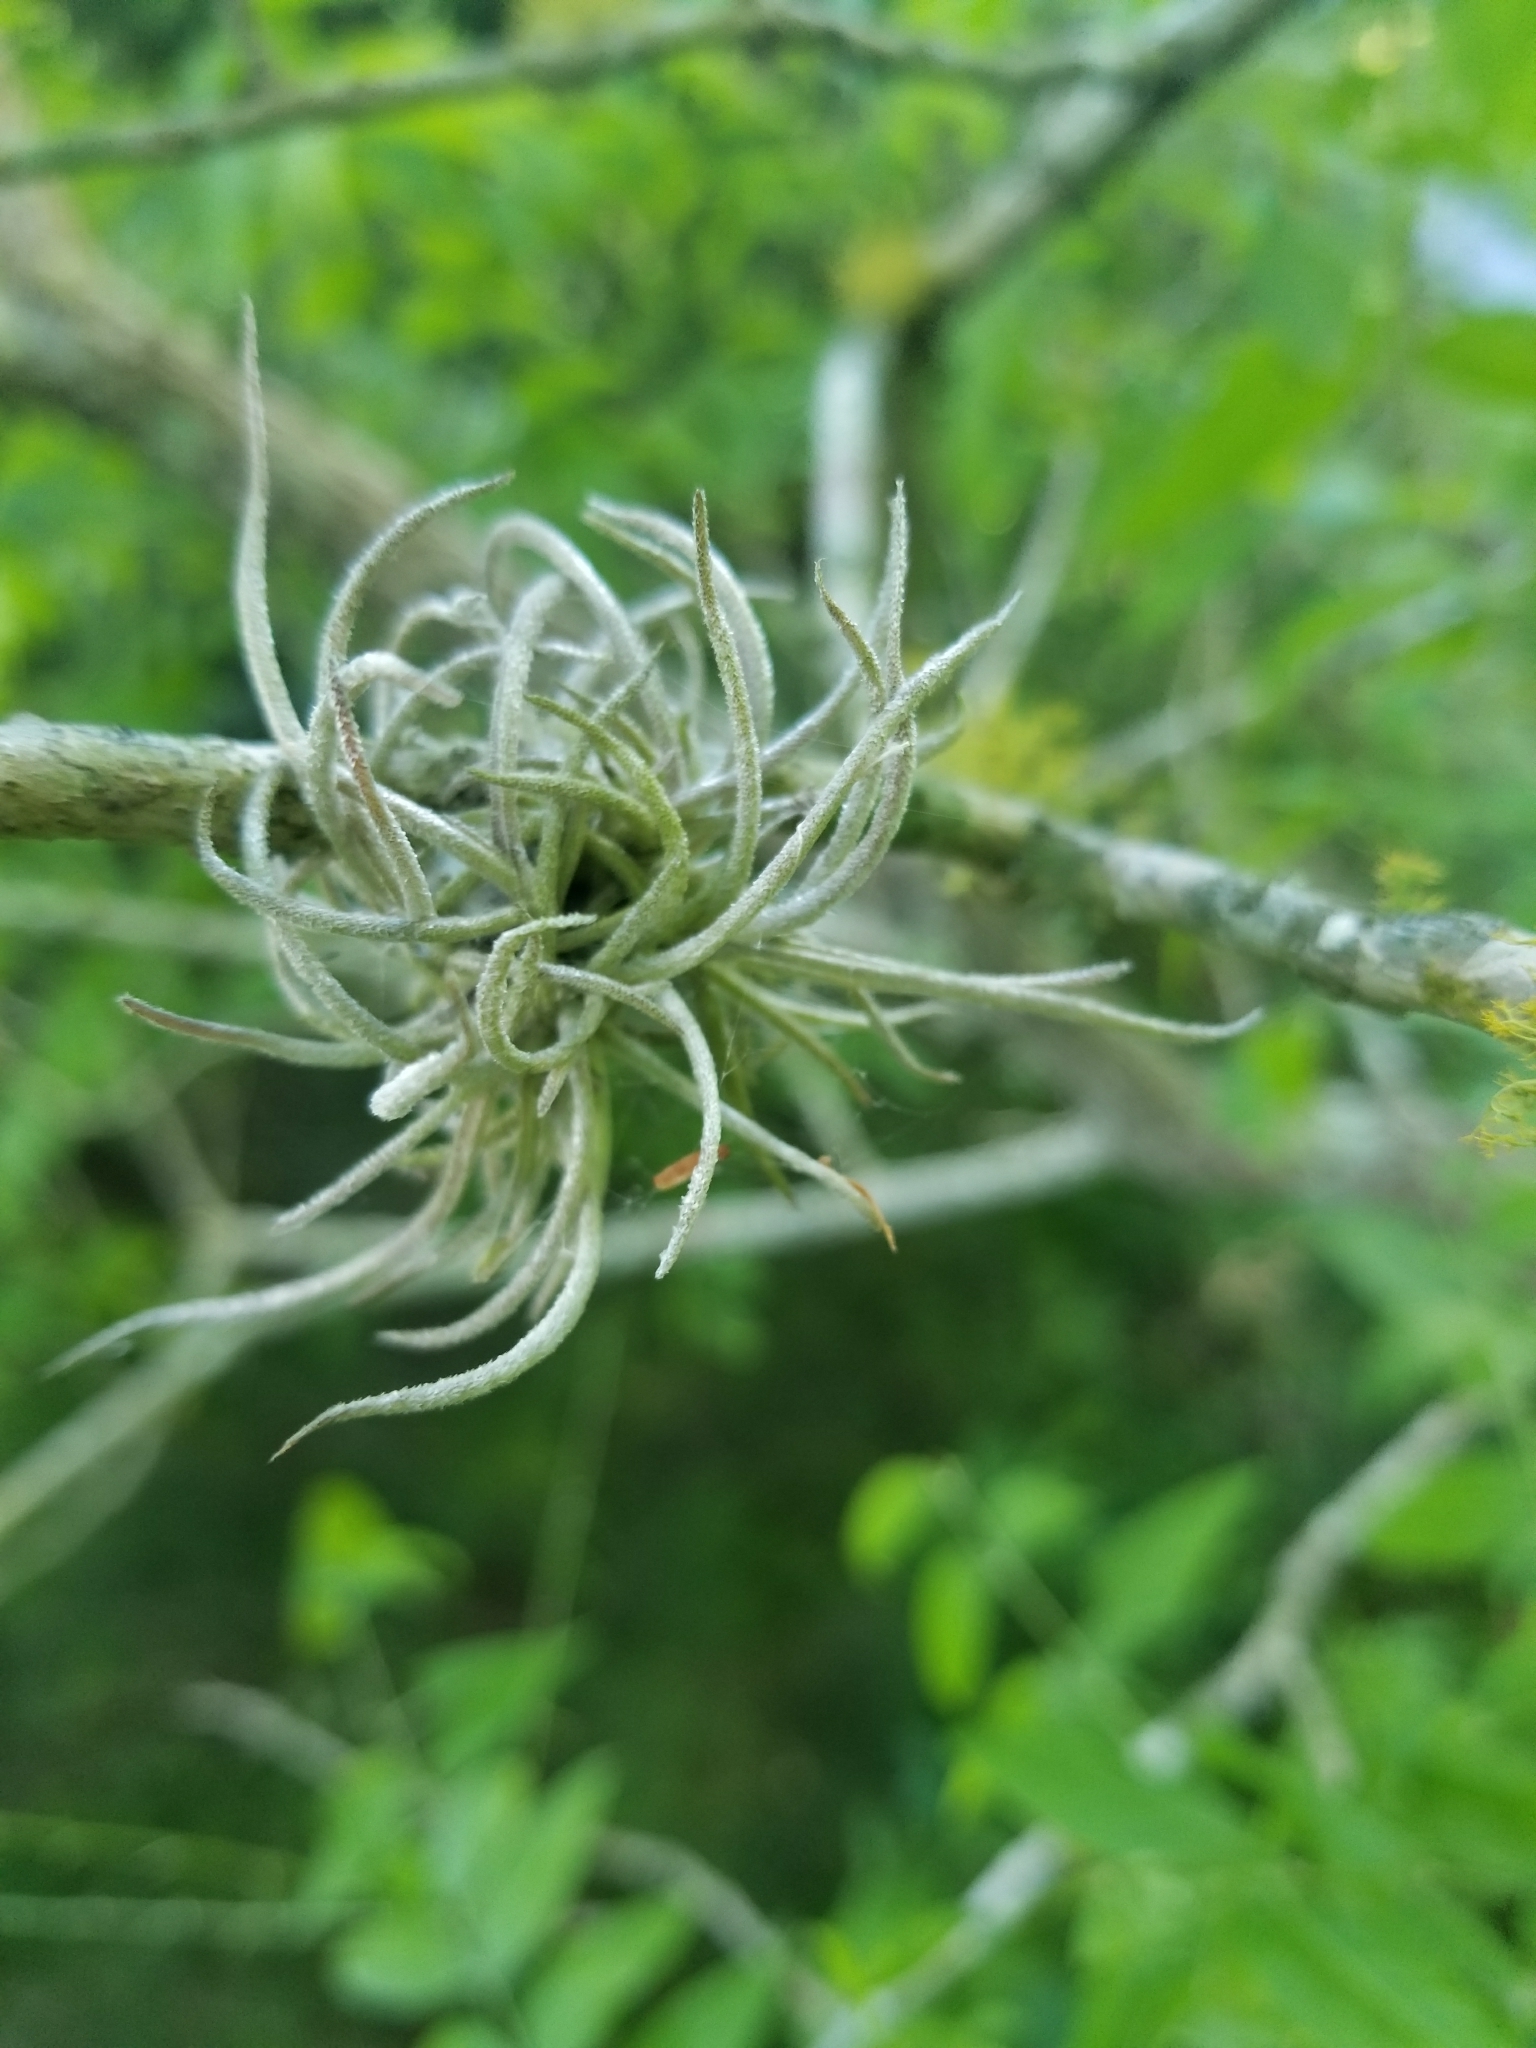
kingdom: Plantae
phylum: Tracheophyta
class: Liliopsida
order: Poales
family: Bromeliaceae
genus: Tillandsia
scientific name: Tillandsia recurvata
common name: Small ballmoss
